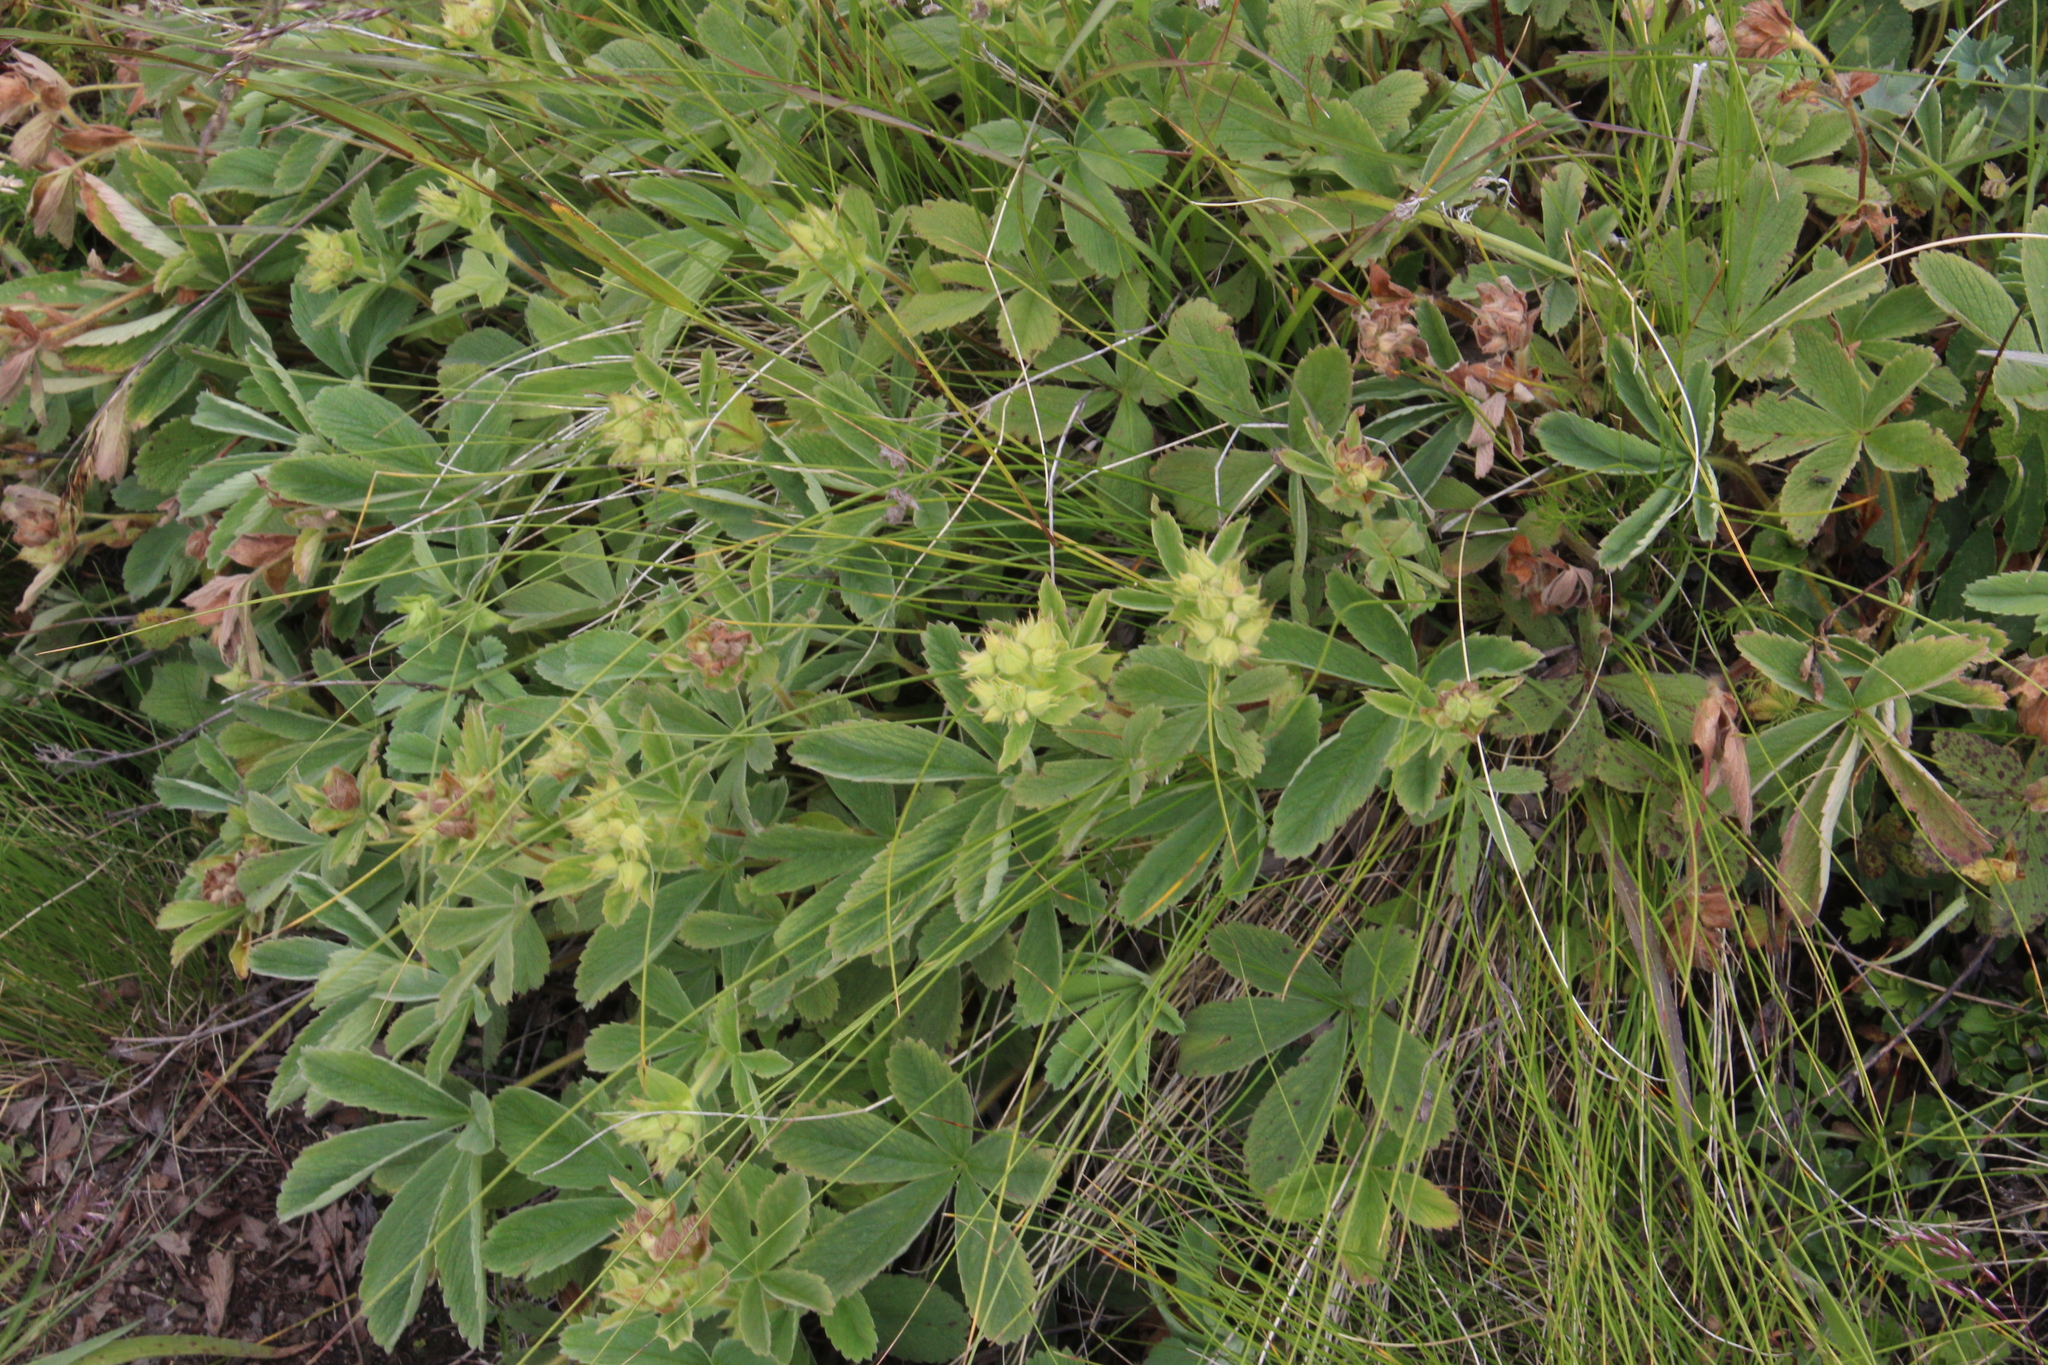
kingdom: Plantae
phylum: Tracheophyta
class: Magnoliopsida
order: Rosales
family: Rosaceae
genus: Potentilla
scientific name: Potentilla brachypetala
